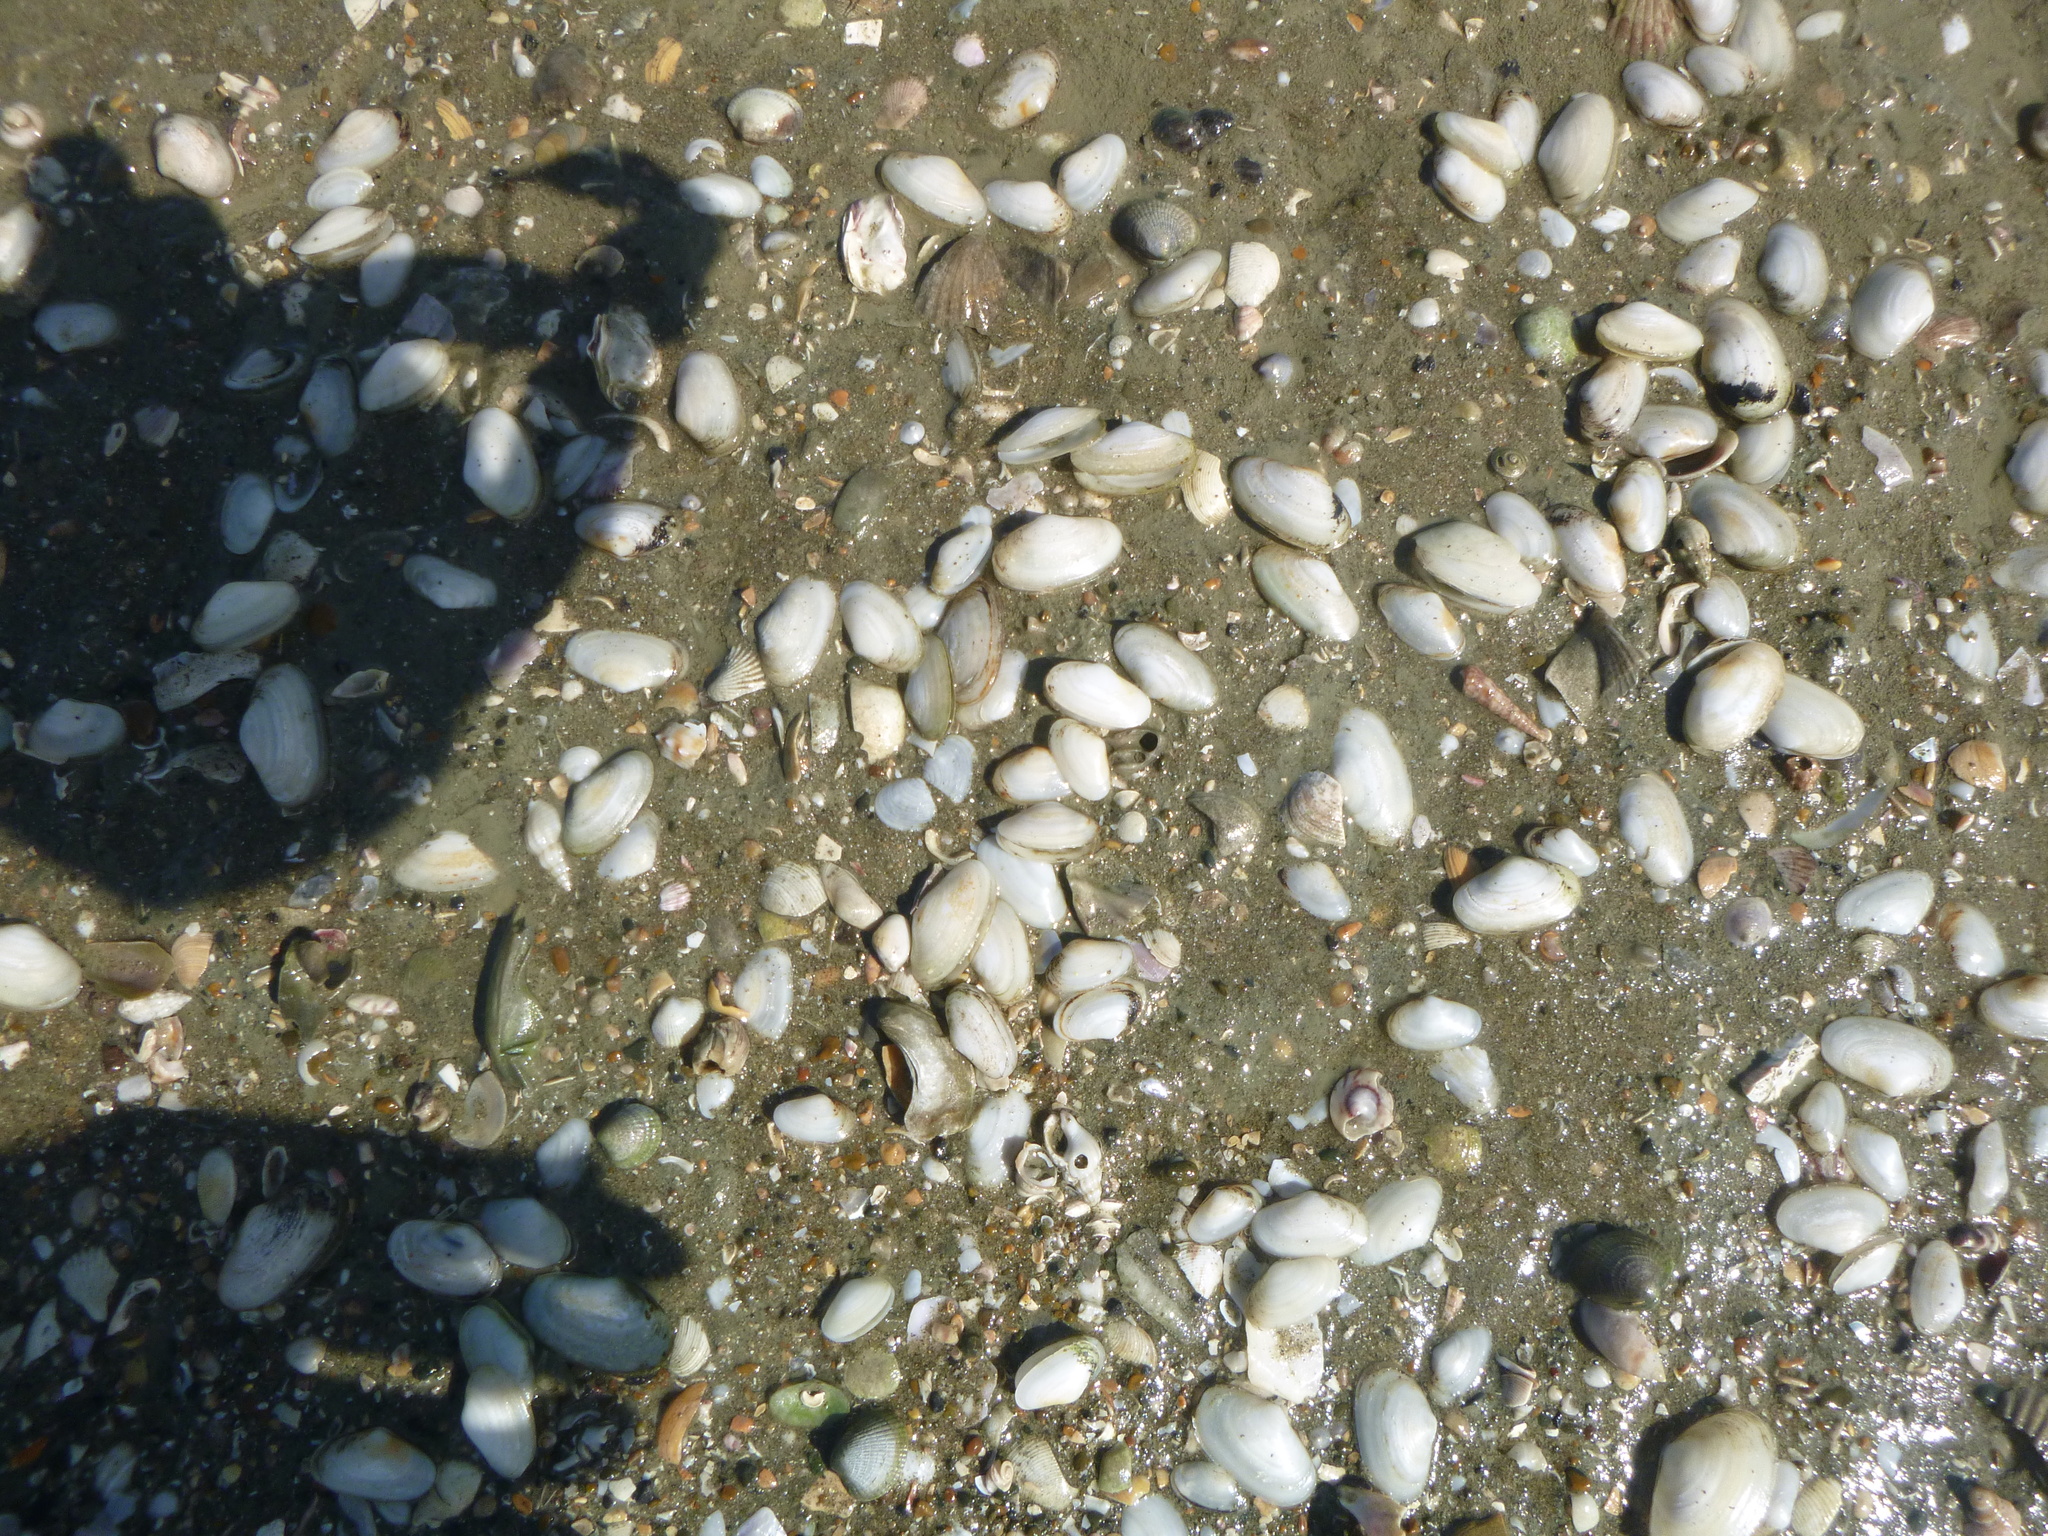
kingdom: Animalia
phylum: Mollusca
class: Bivalvia
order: Venerida
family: Mesodesmatidae
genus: Paphies
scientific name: Paphies australis
